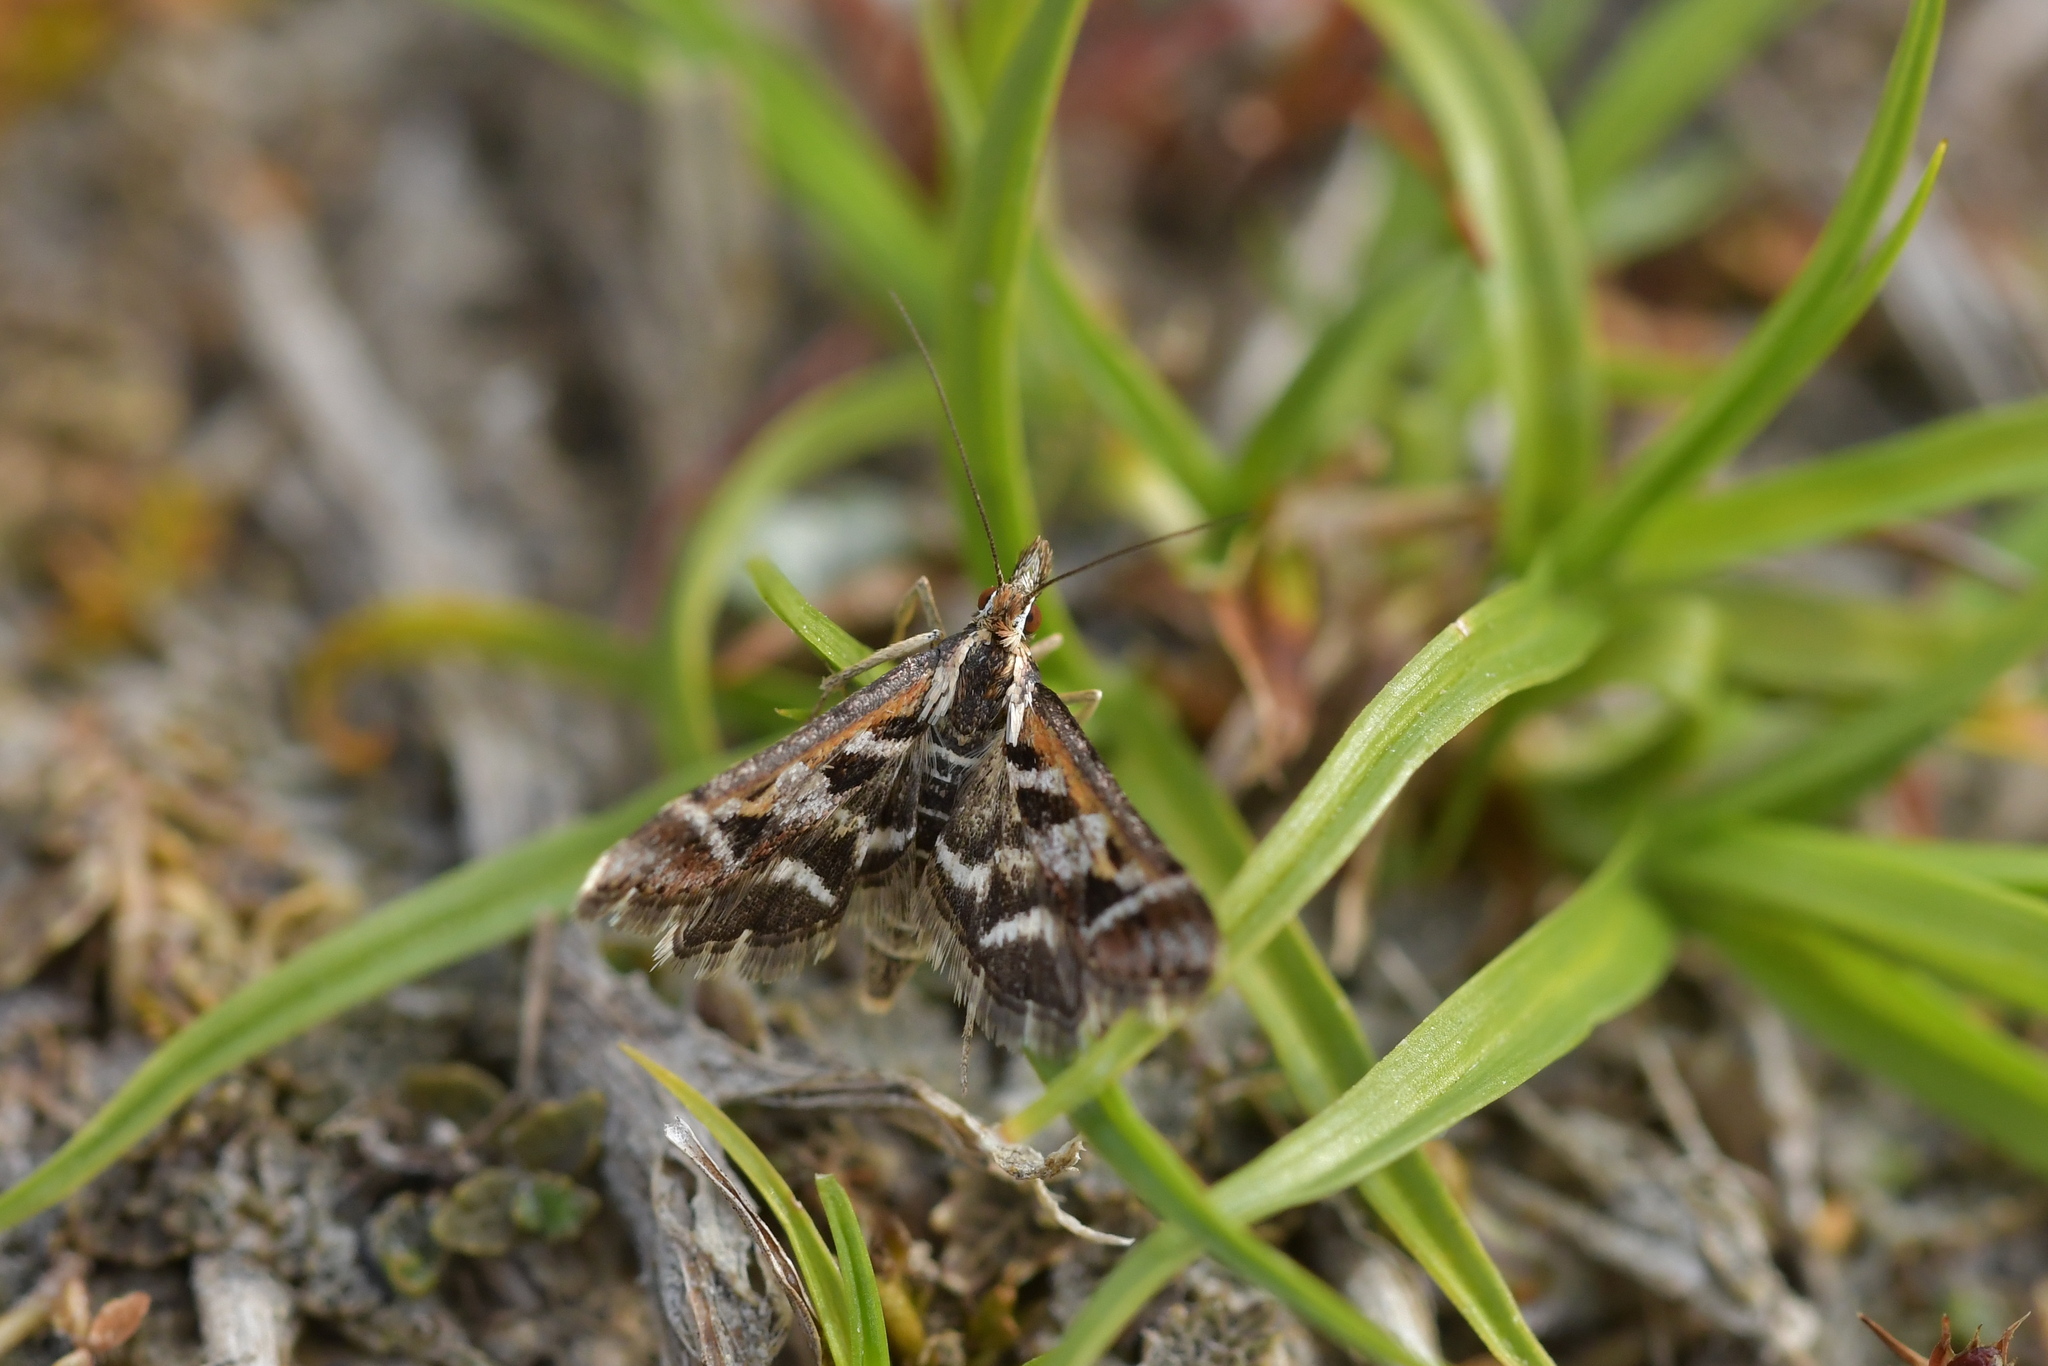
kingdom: Animalia
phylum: Arthropoda
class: Insecta
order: Lepidoptera
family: Crambidae
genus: Diasemia
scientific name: Diasemia grammalis
